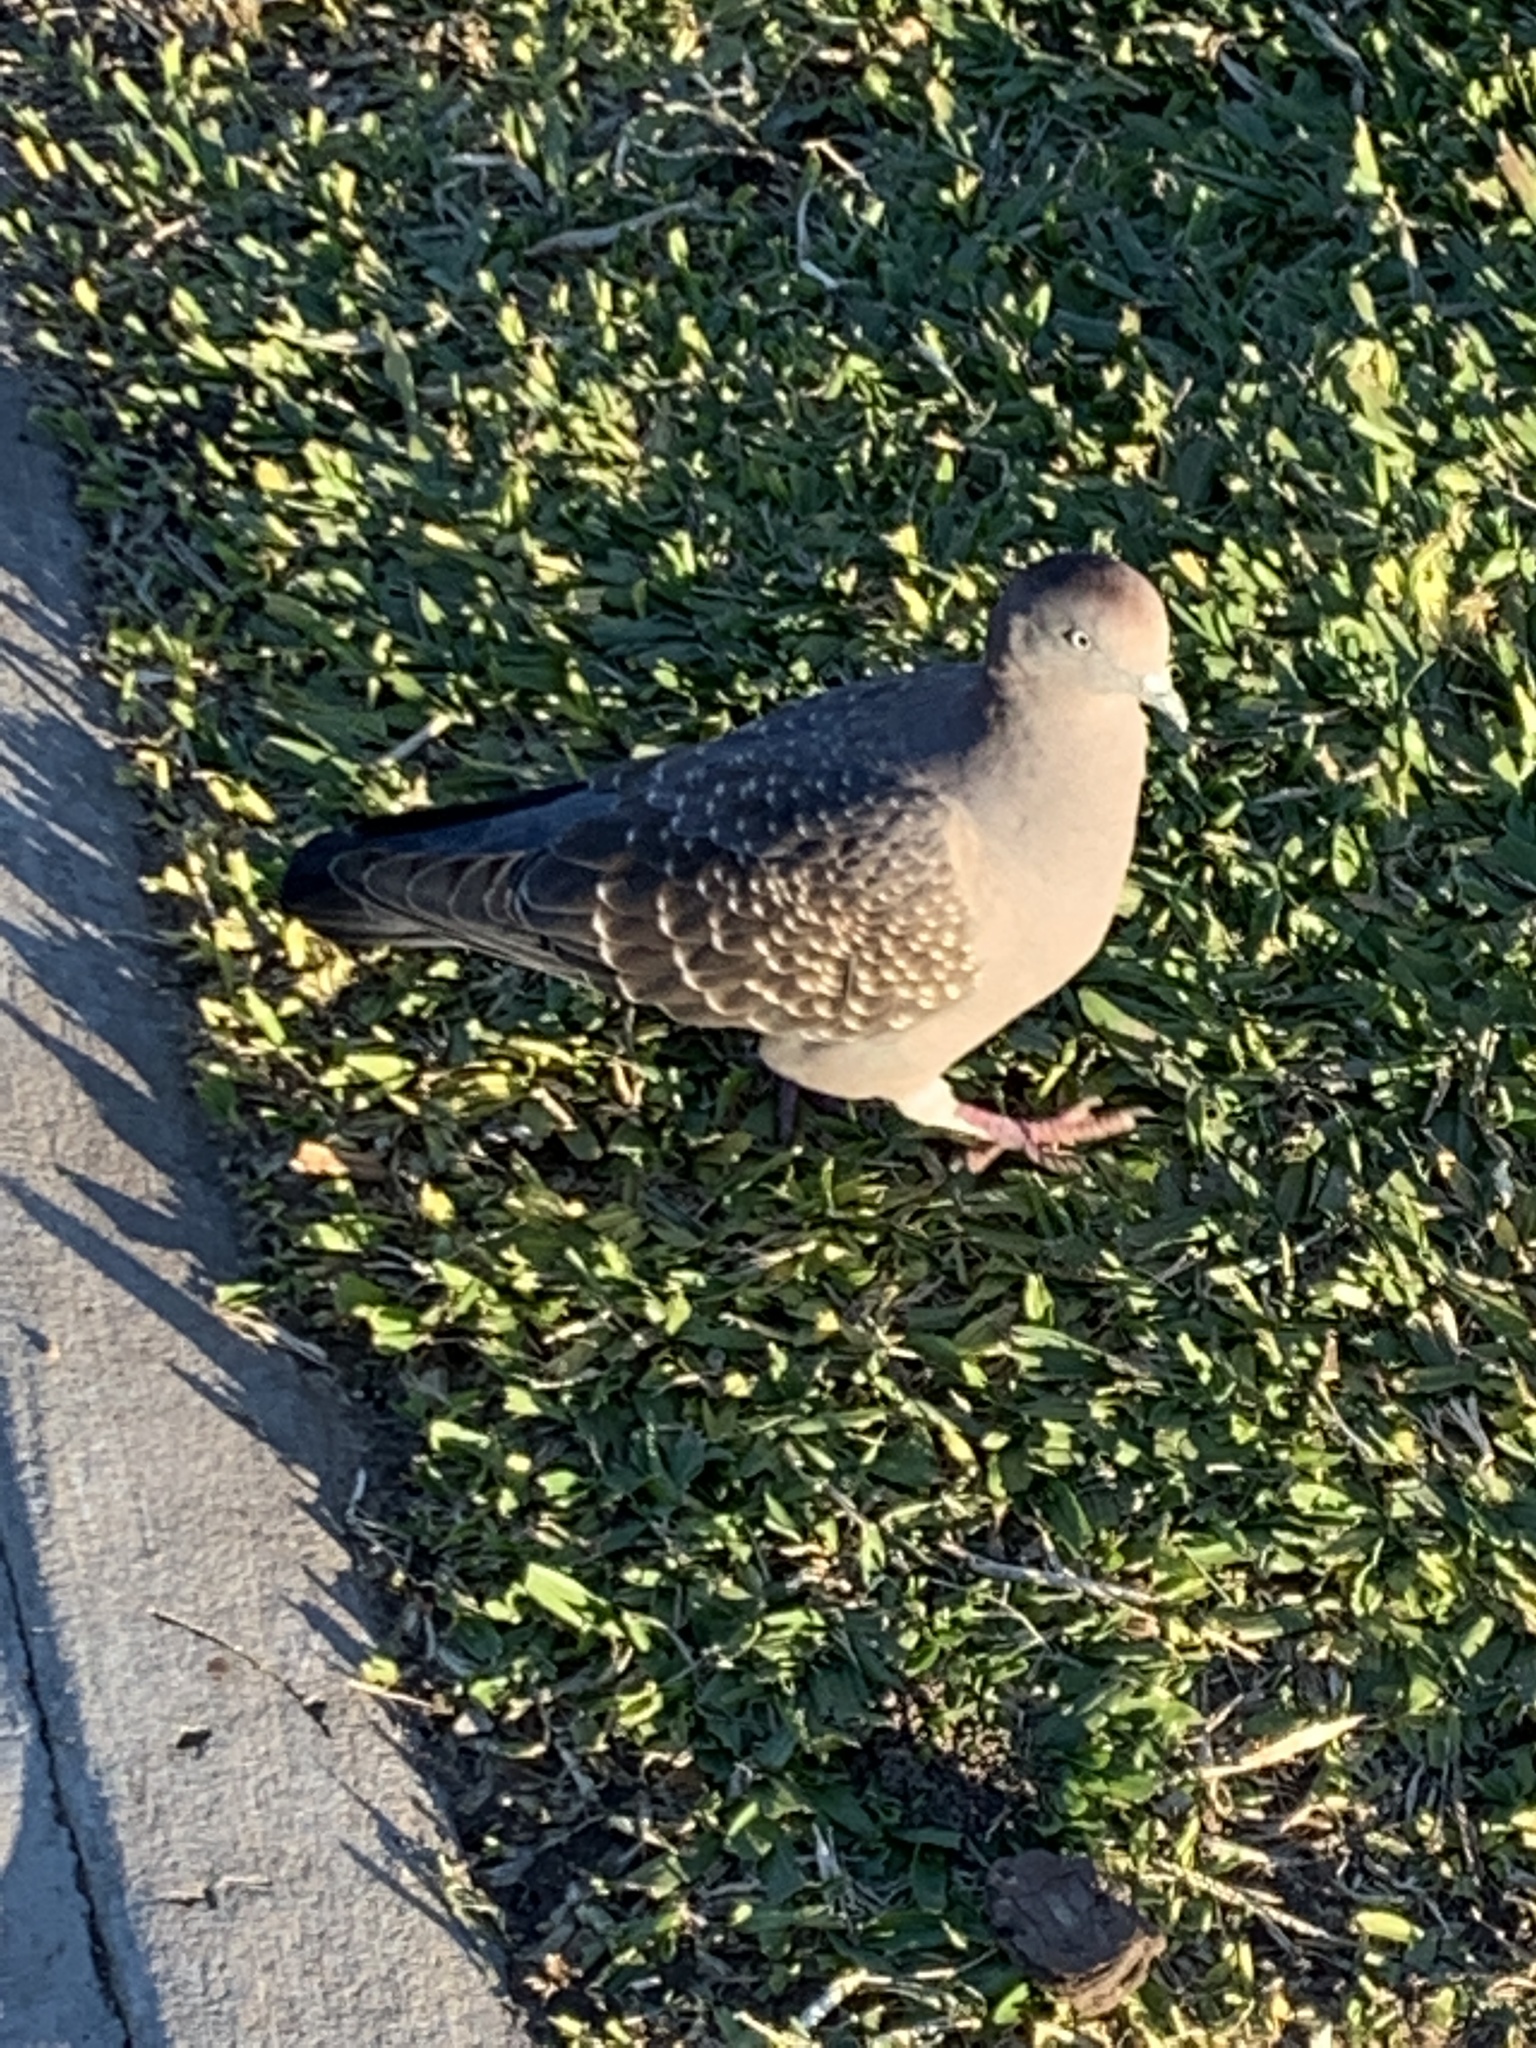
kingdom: Animalia
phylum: Chordata
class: Aves
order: Columbiformes
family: Columbidae
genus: Patagioenas
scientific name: Patagioenas maculosa
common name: Spot-winged pigeon
